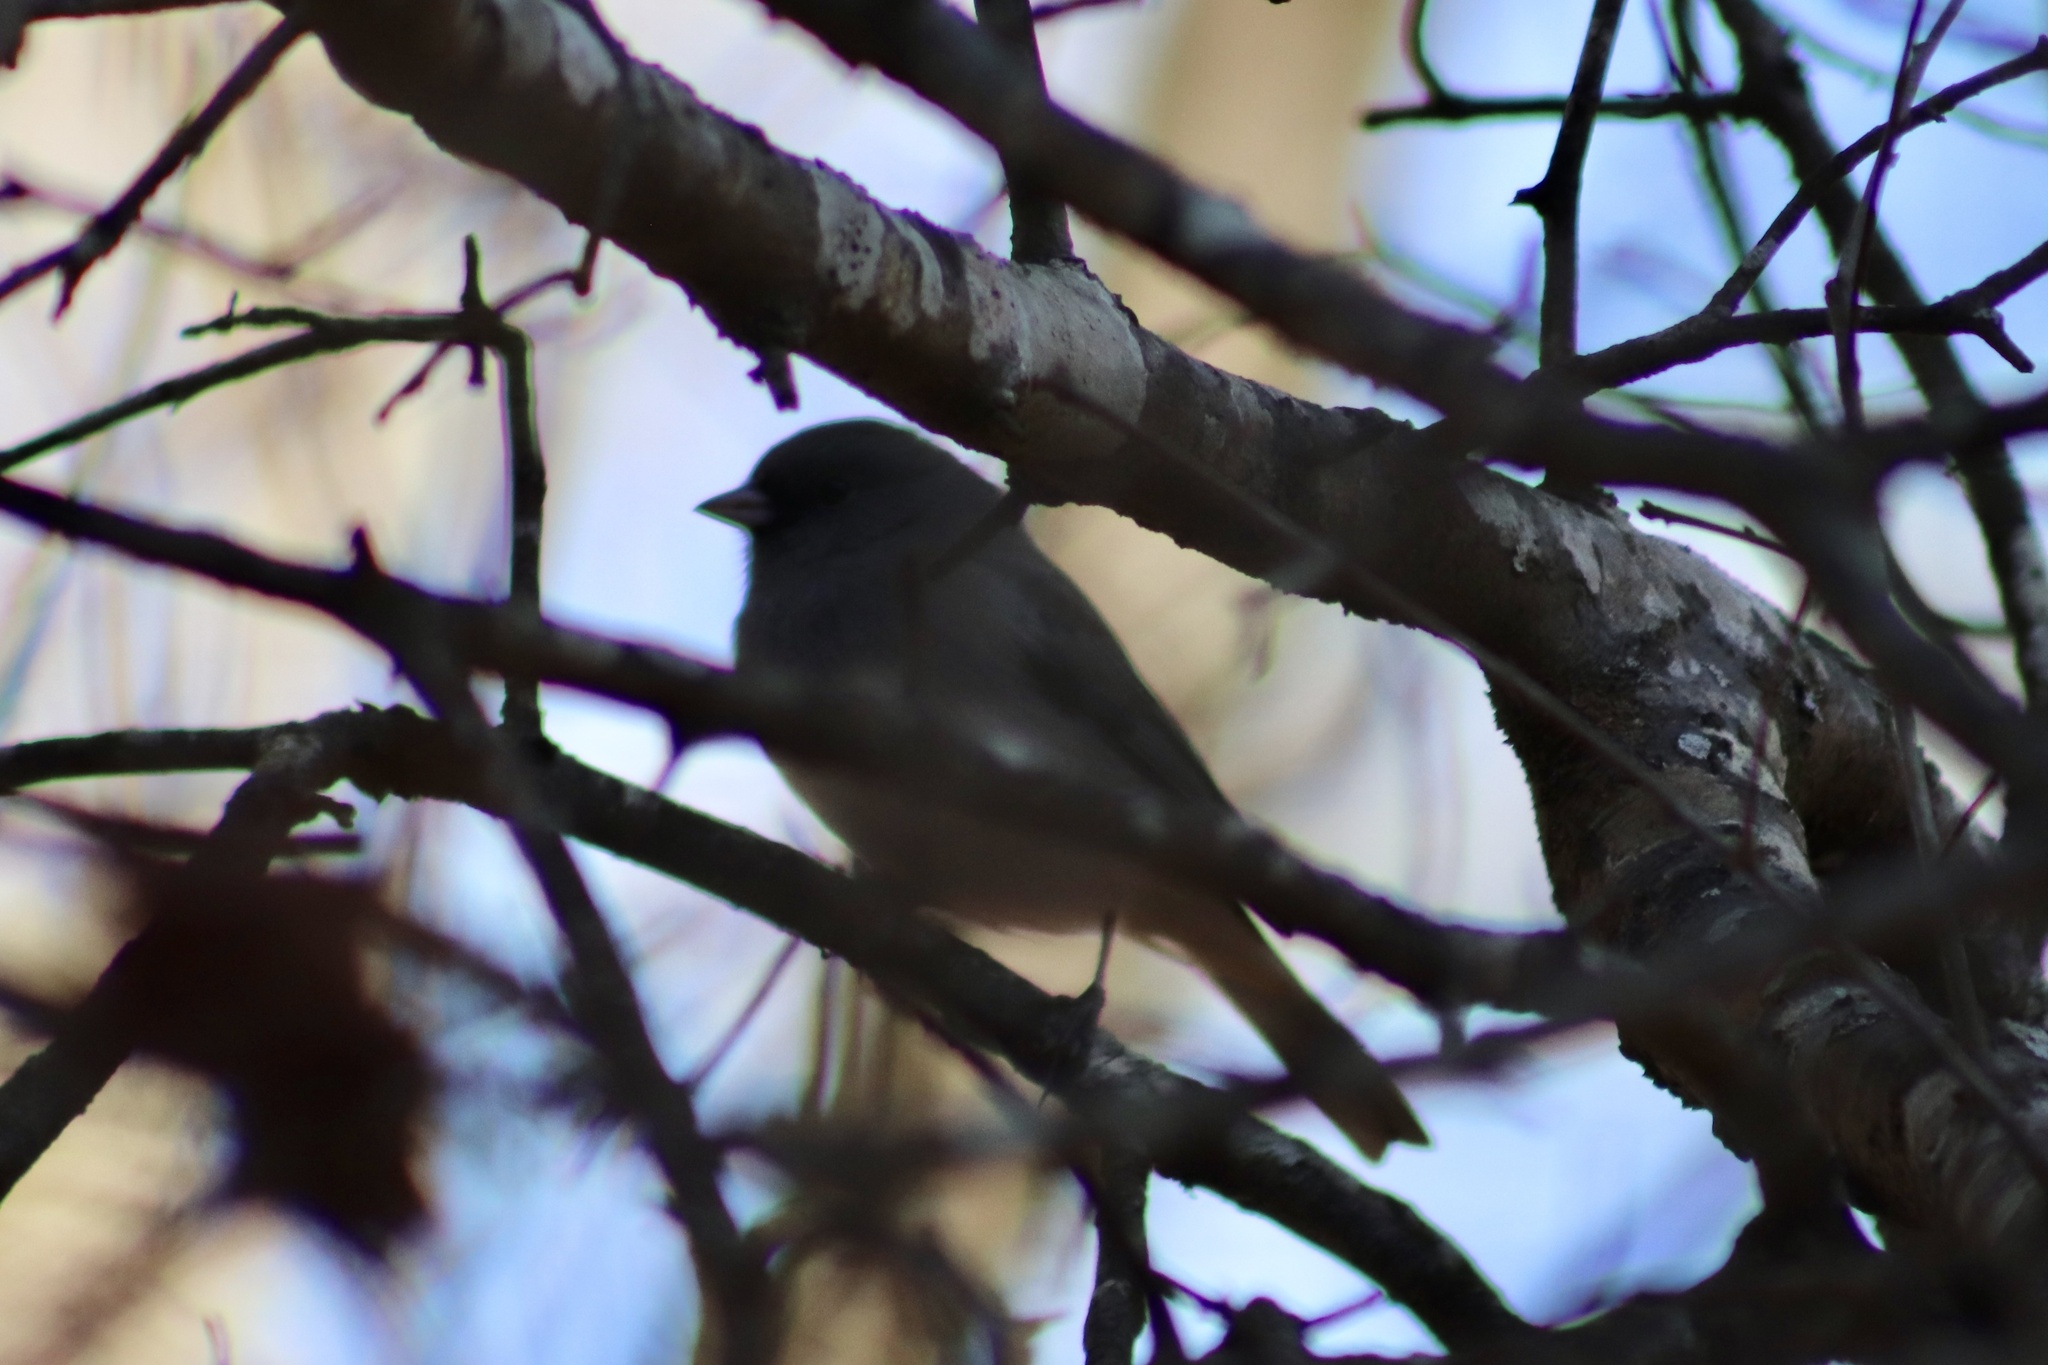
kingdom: Animalia
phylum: Chordata
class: Aves
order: Passeriformes
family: Passerellidae
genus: Junco
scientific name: Junco hyemalis
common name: Dark-eyed junco
